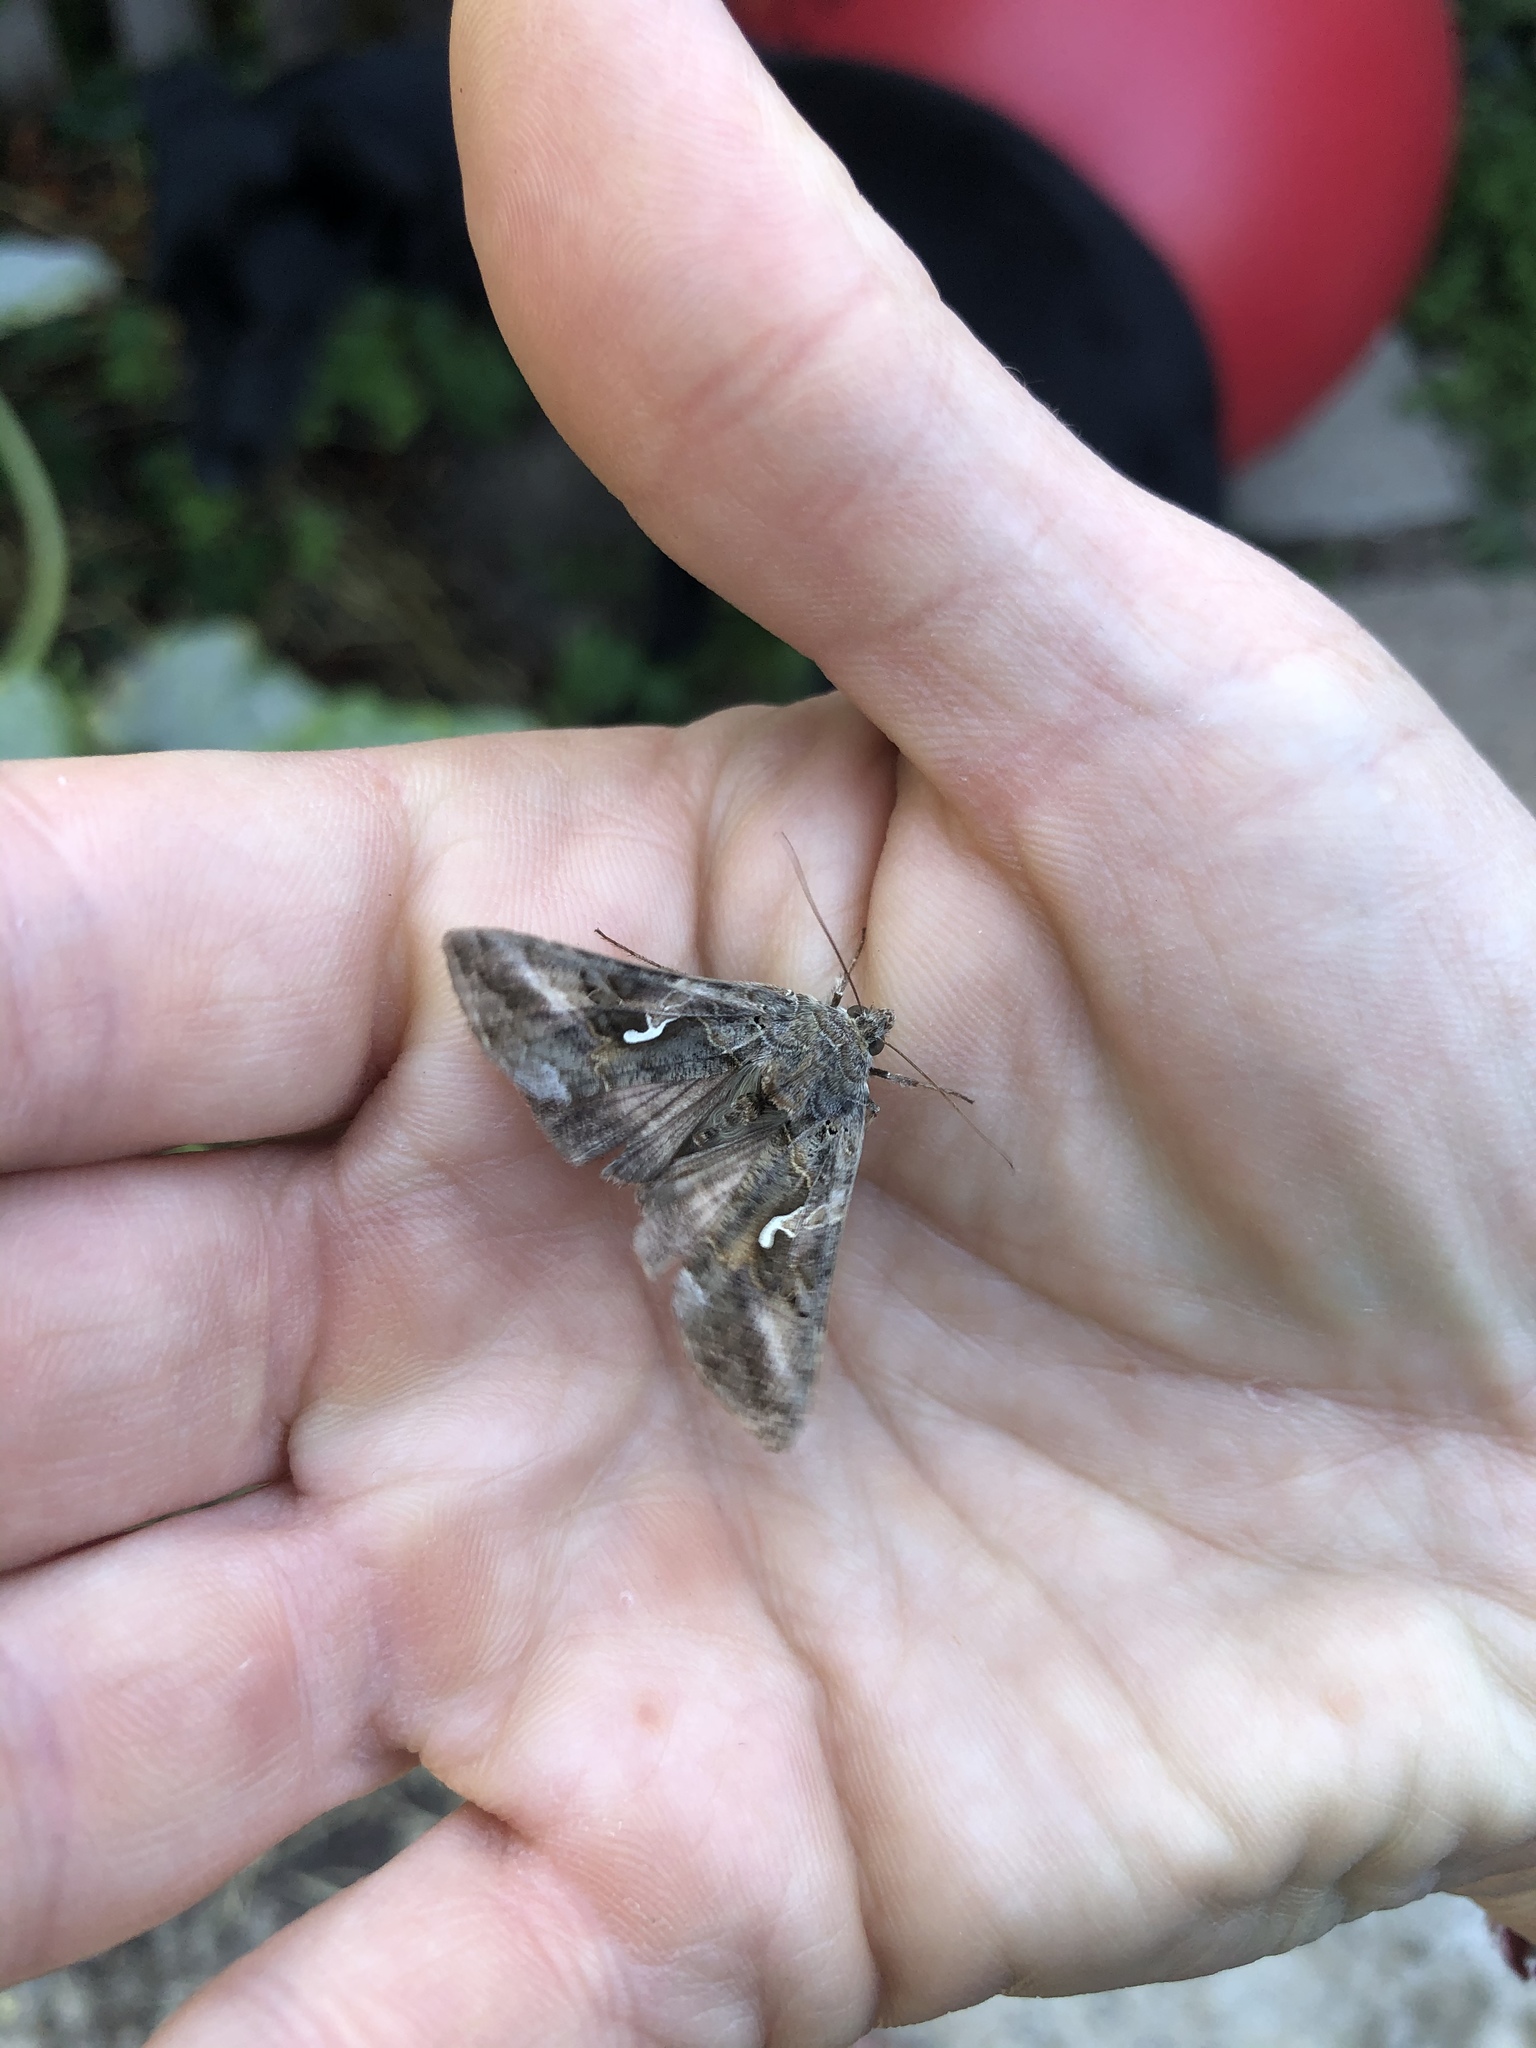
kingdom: Animalia
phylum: Arthropoda
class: Insecta
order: Lepidoptera
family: Noctuidae
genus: Autographa
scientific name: Autographa gamma
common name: Silver y
